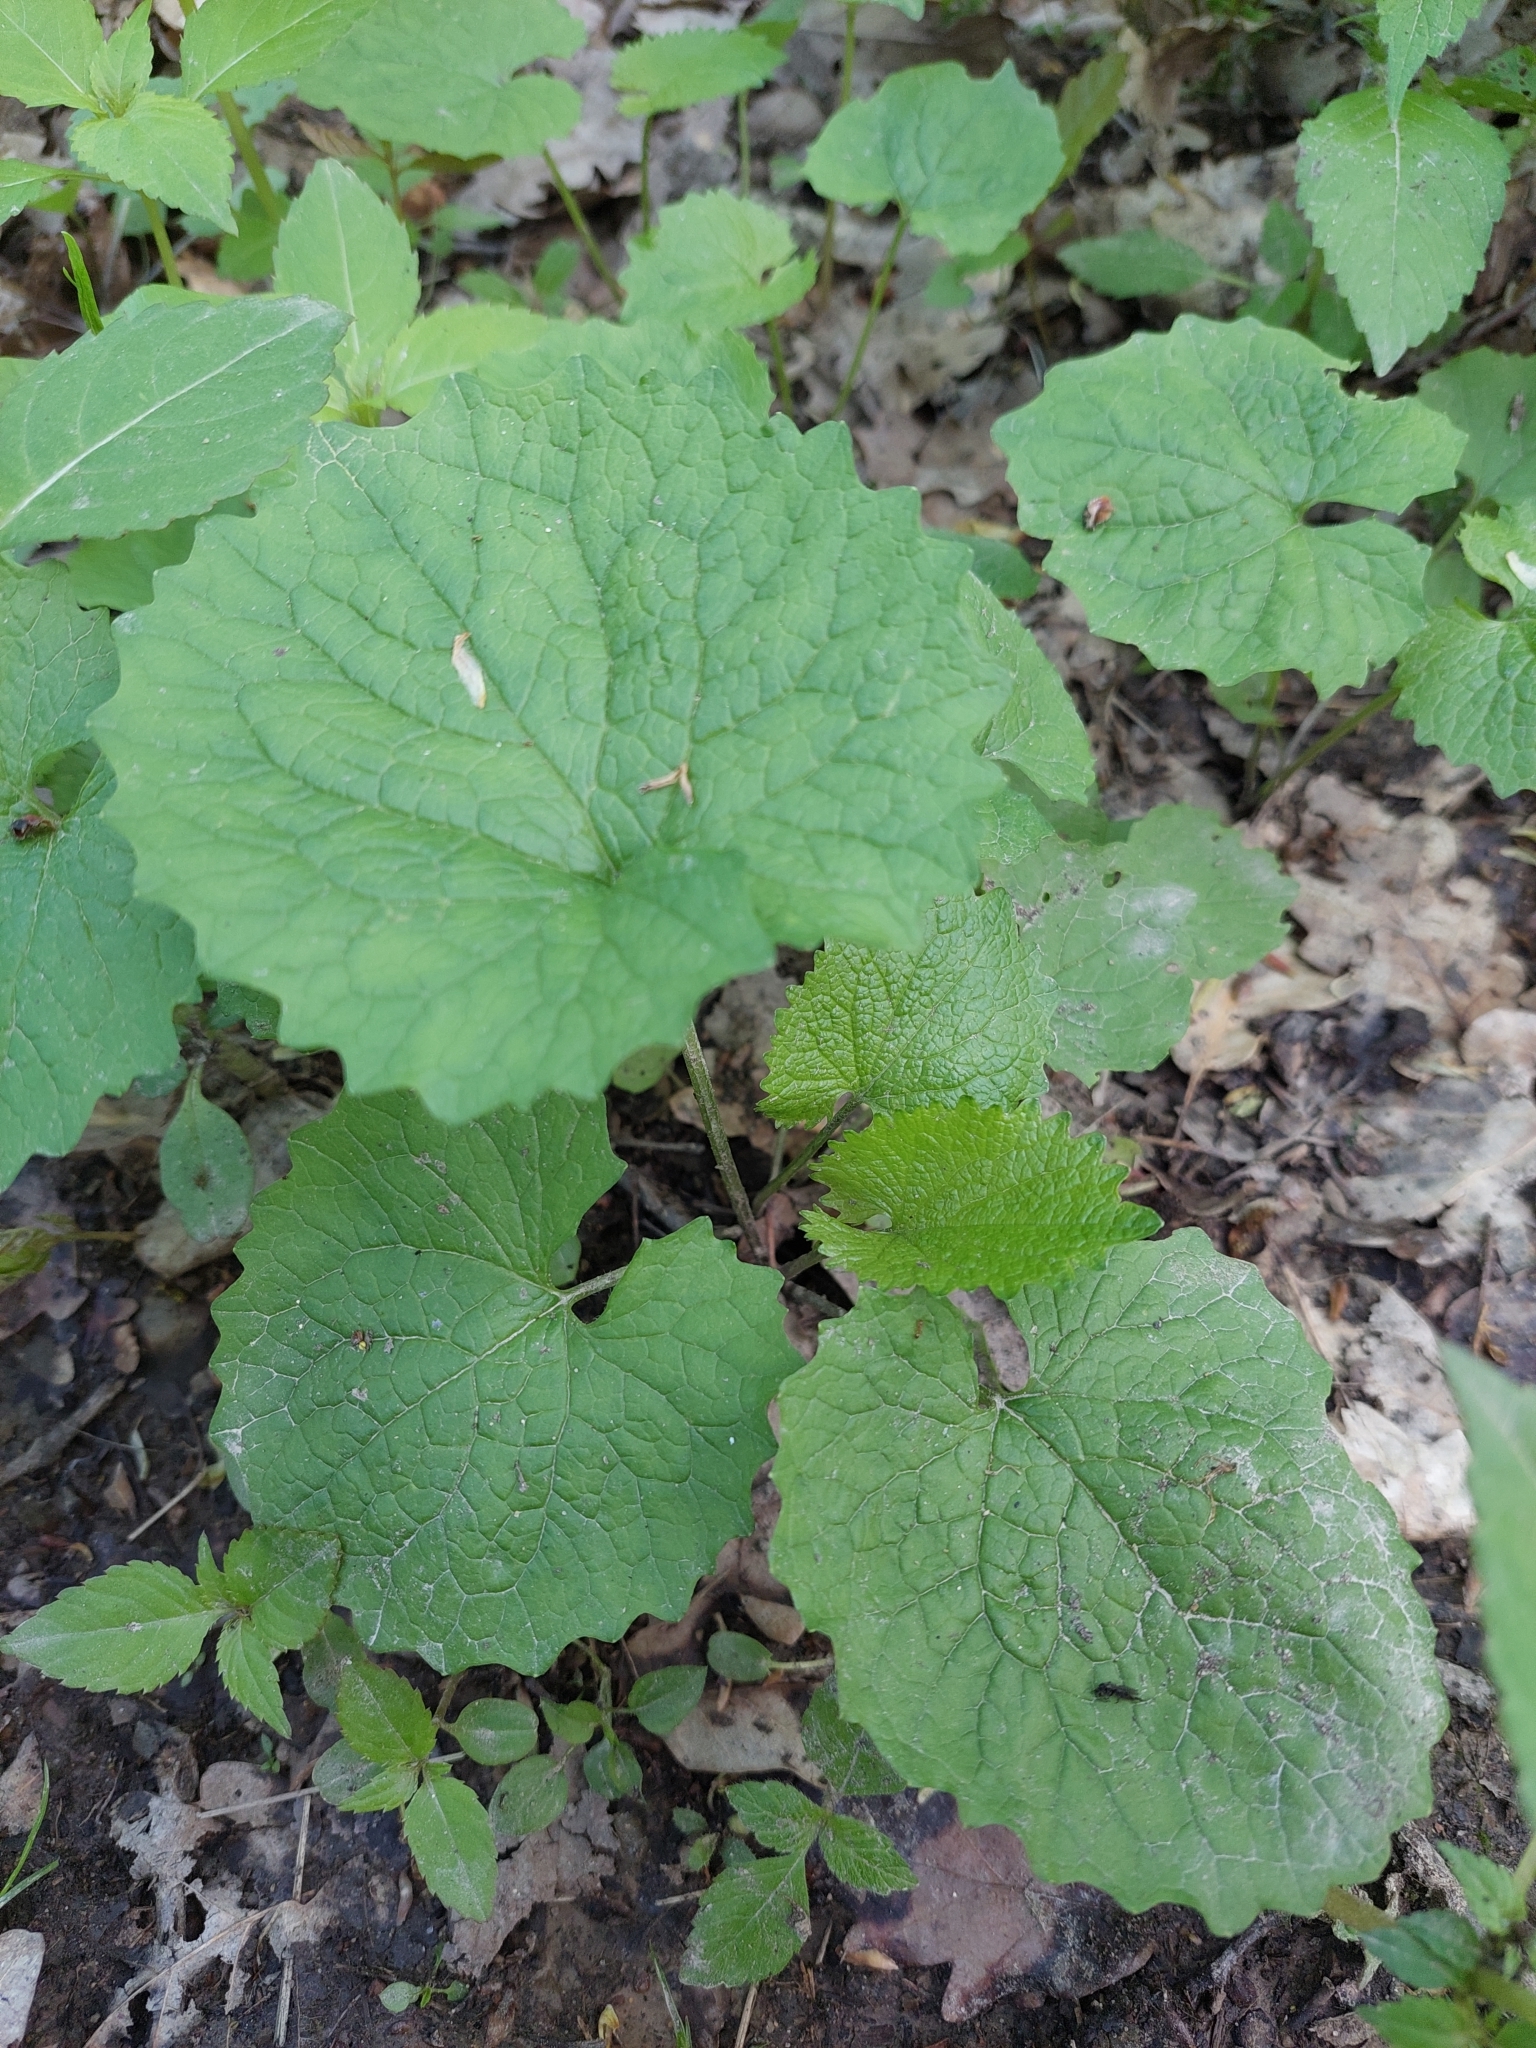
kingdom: Plantae
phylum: Tracheophyta
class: Magnoliopsida
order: Brassicales
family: Brassicaceae
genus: Alliaria
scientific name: Alliaria petiolata
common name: Garlic mustard
